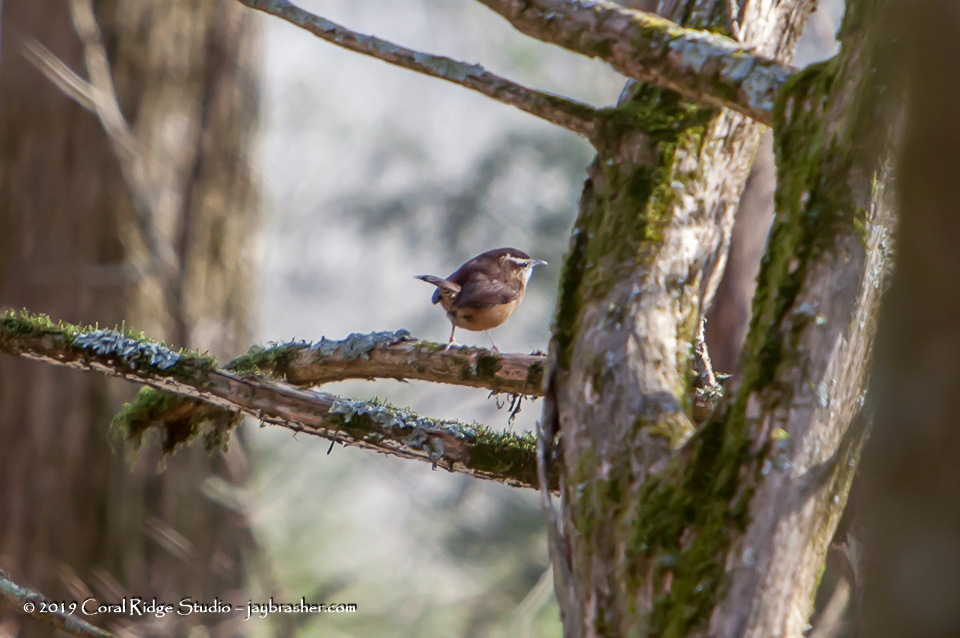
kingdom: Animalia
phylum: Chordata
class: Aves
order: Passeriformes
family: Troglodytidae
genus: Thryothorus
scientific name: Thryothorus ludovicianus
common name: Carolina wren
